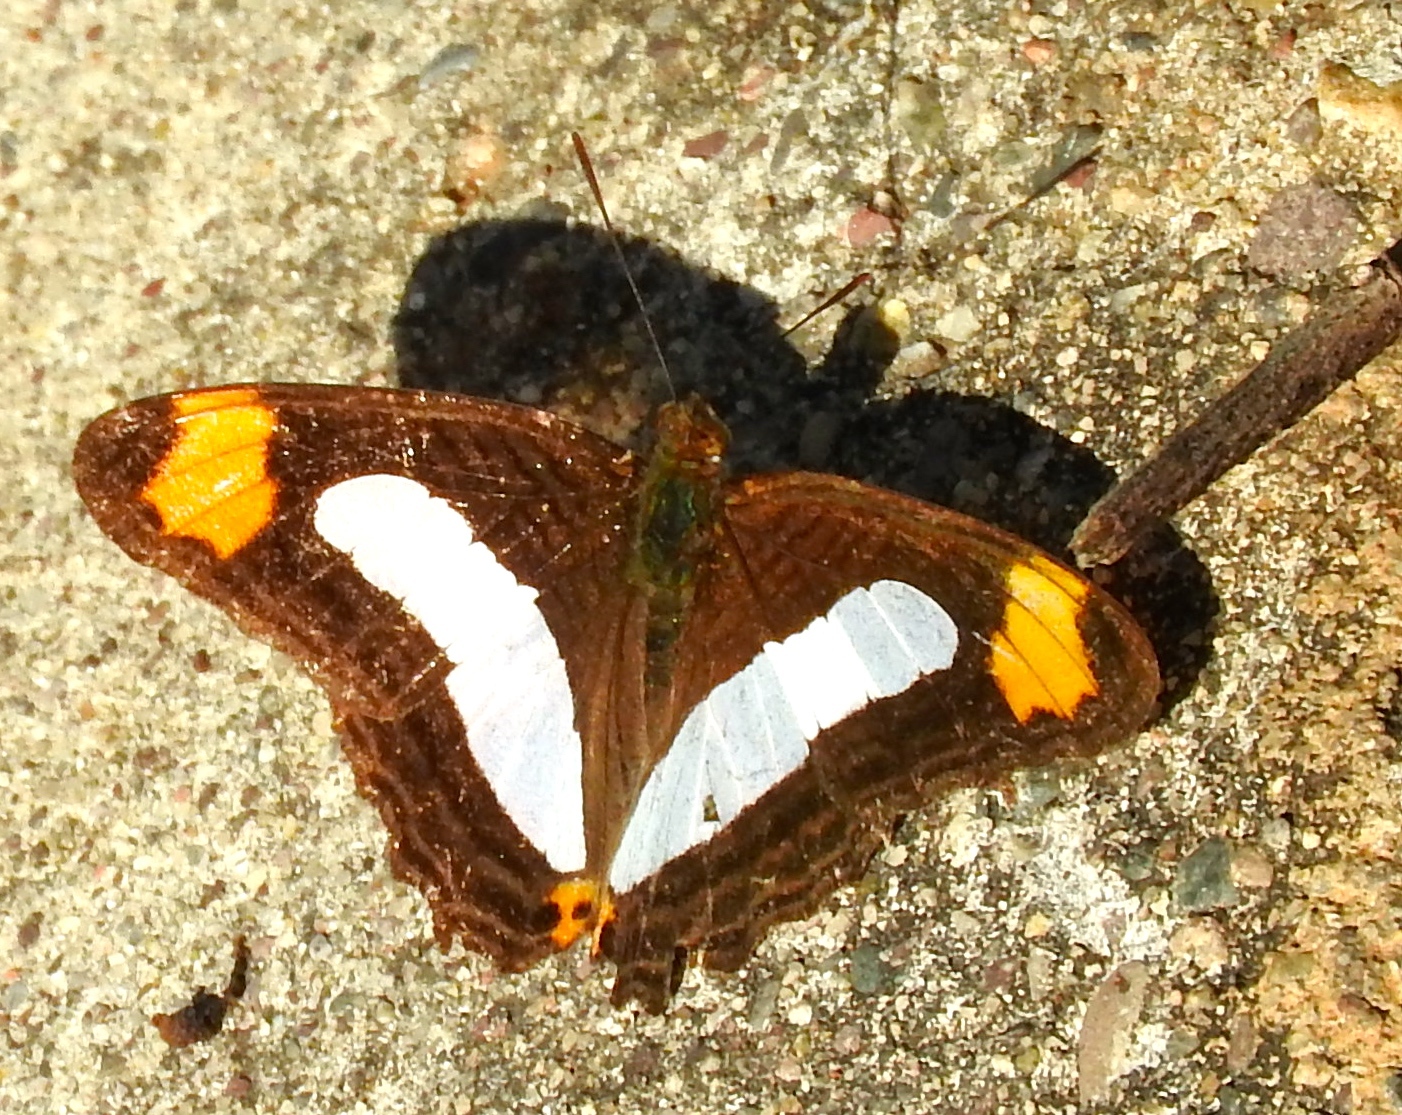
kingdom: Animalia
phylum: Arthropoda
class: Insecta
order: Lepidoptera
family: Nymphalidae
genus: Limenitis
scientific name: Limenitis iphiclus
